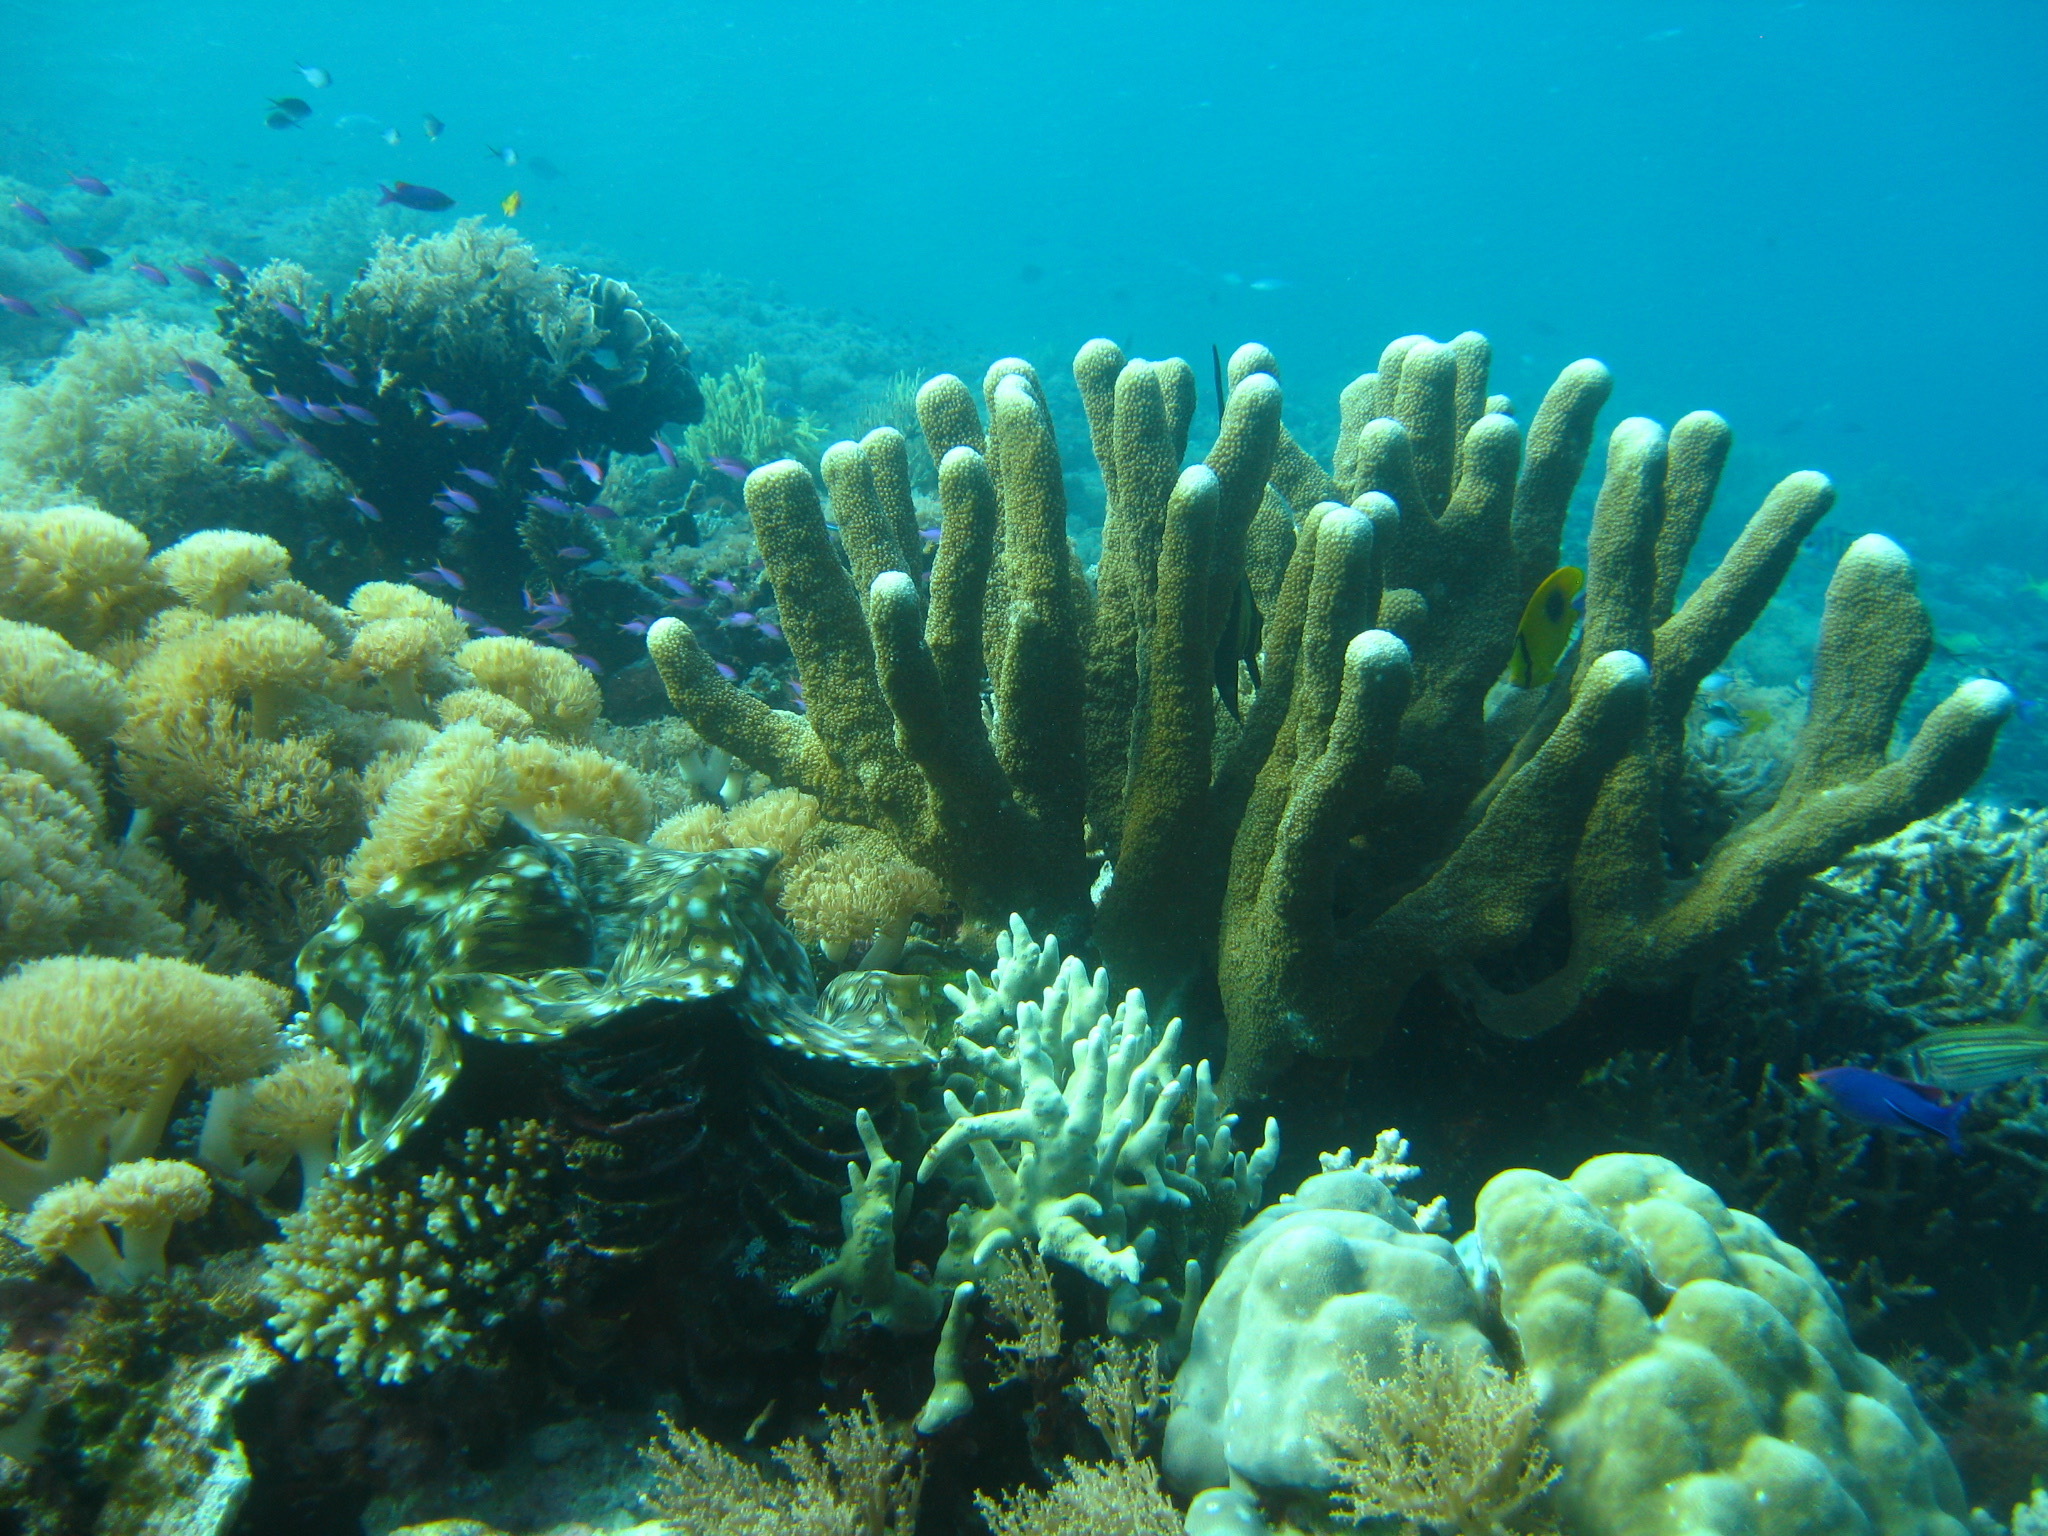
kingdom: Animalia
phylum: Cnidaria
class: Anthozoa
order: Scleractinia
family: Acroporidae
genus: Isopora
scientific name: Isopora palifera
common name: Catch bowl coral
